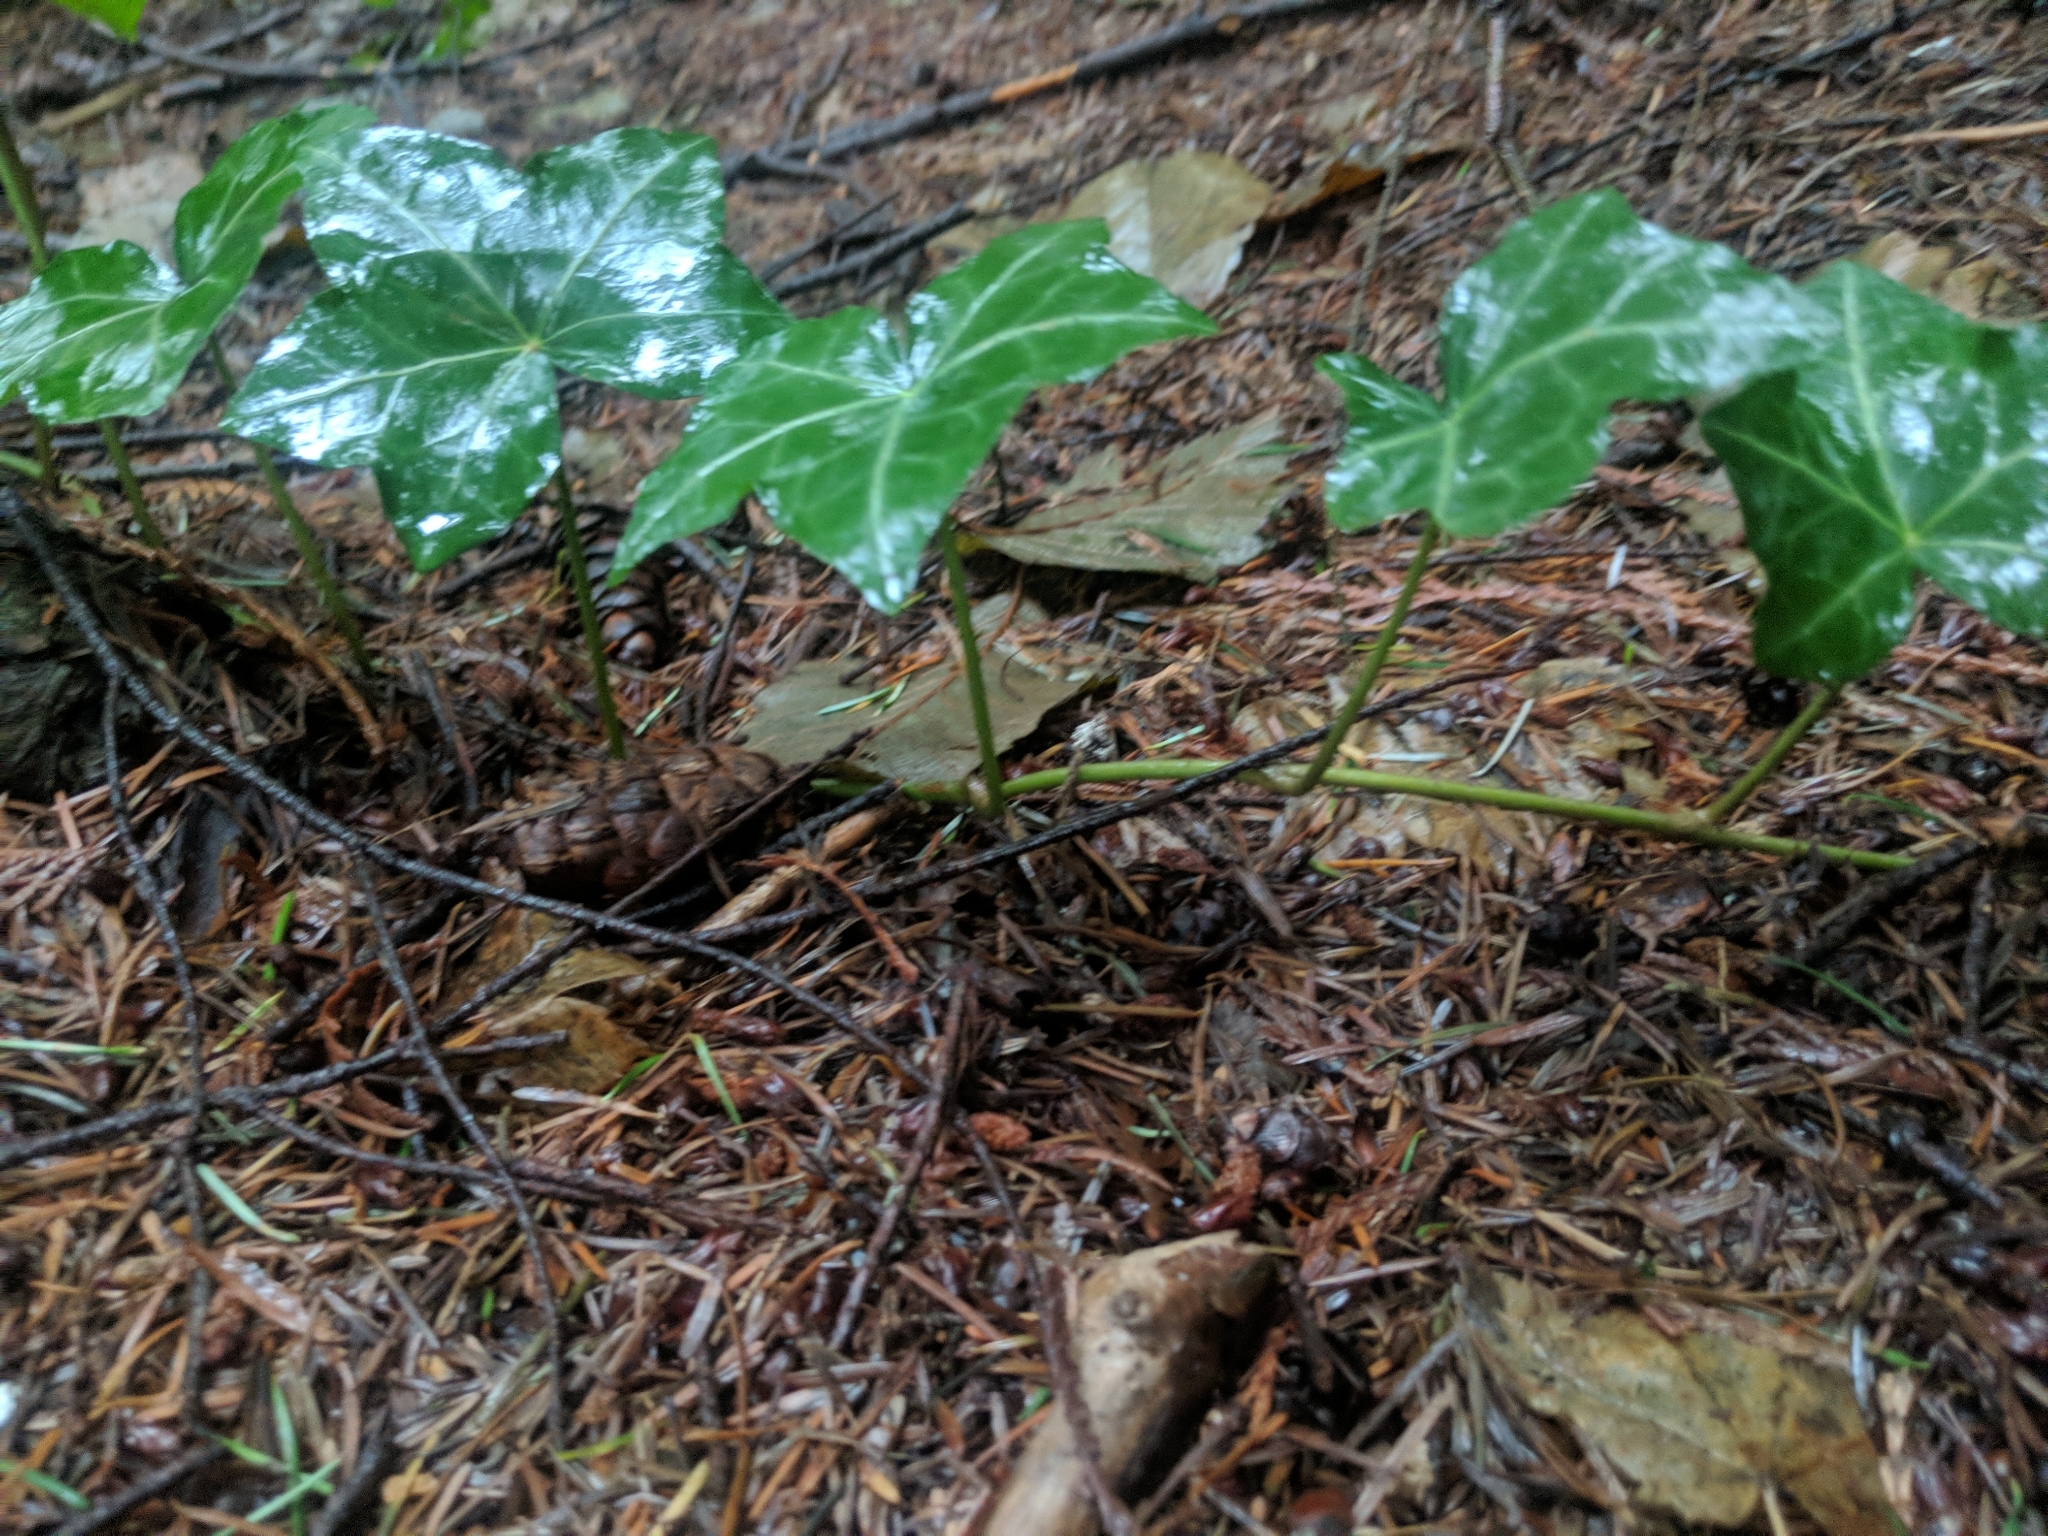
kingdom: Plantae
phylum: Tracheophyta
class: Magnoliopsida
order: Apiales
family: Araliaceae
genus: Hedera
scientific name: Hedera helix
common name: Ivy
